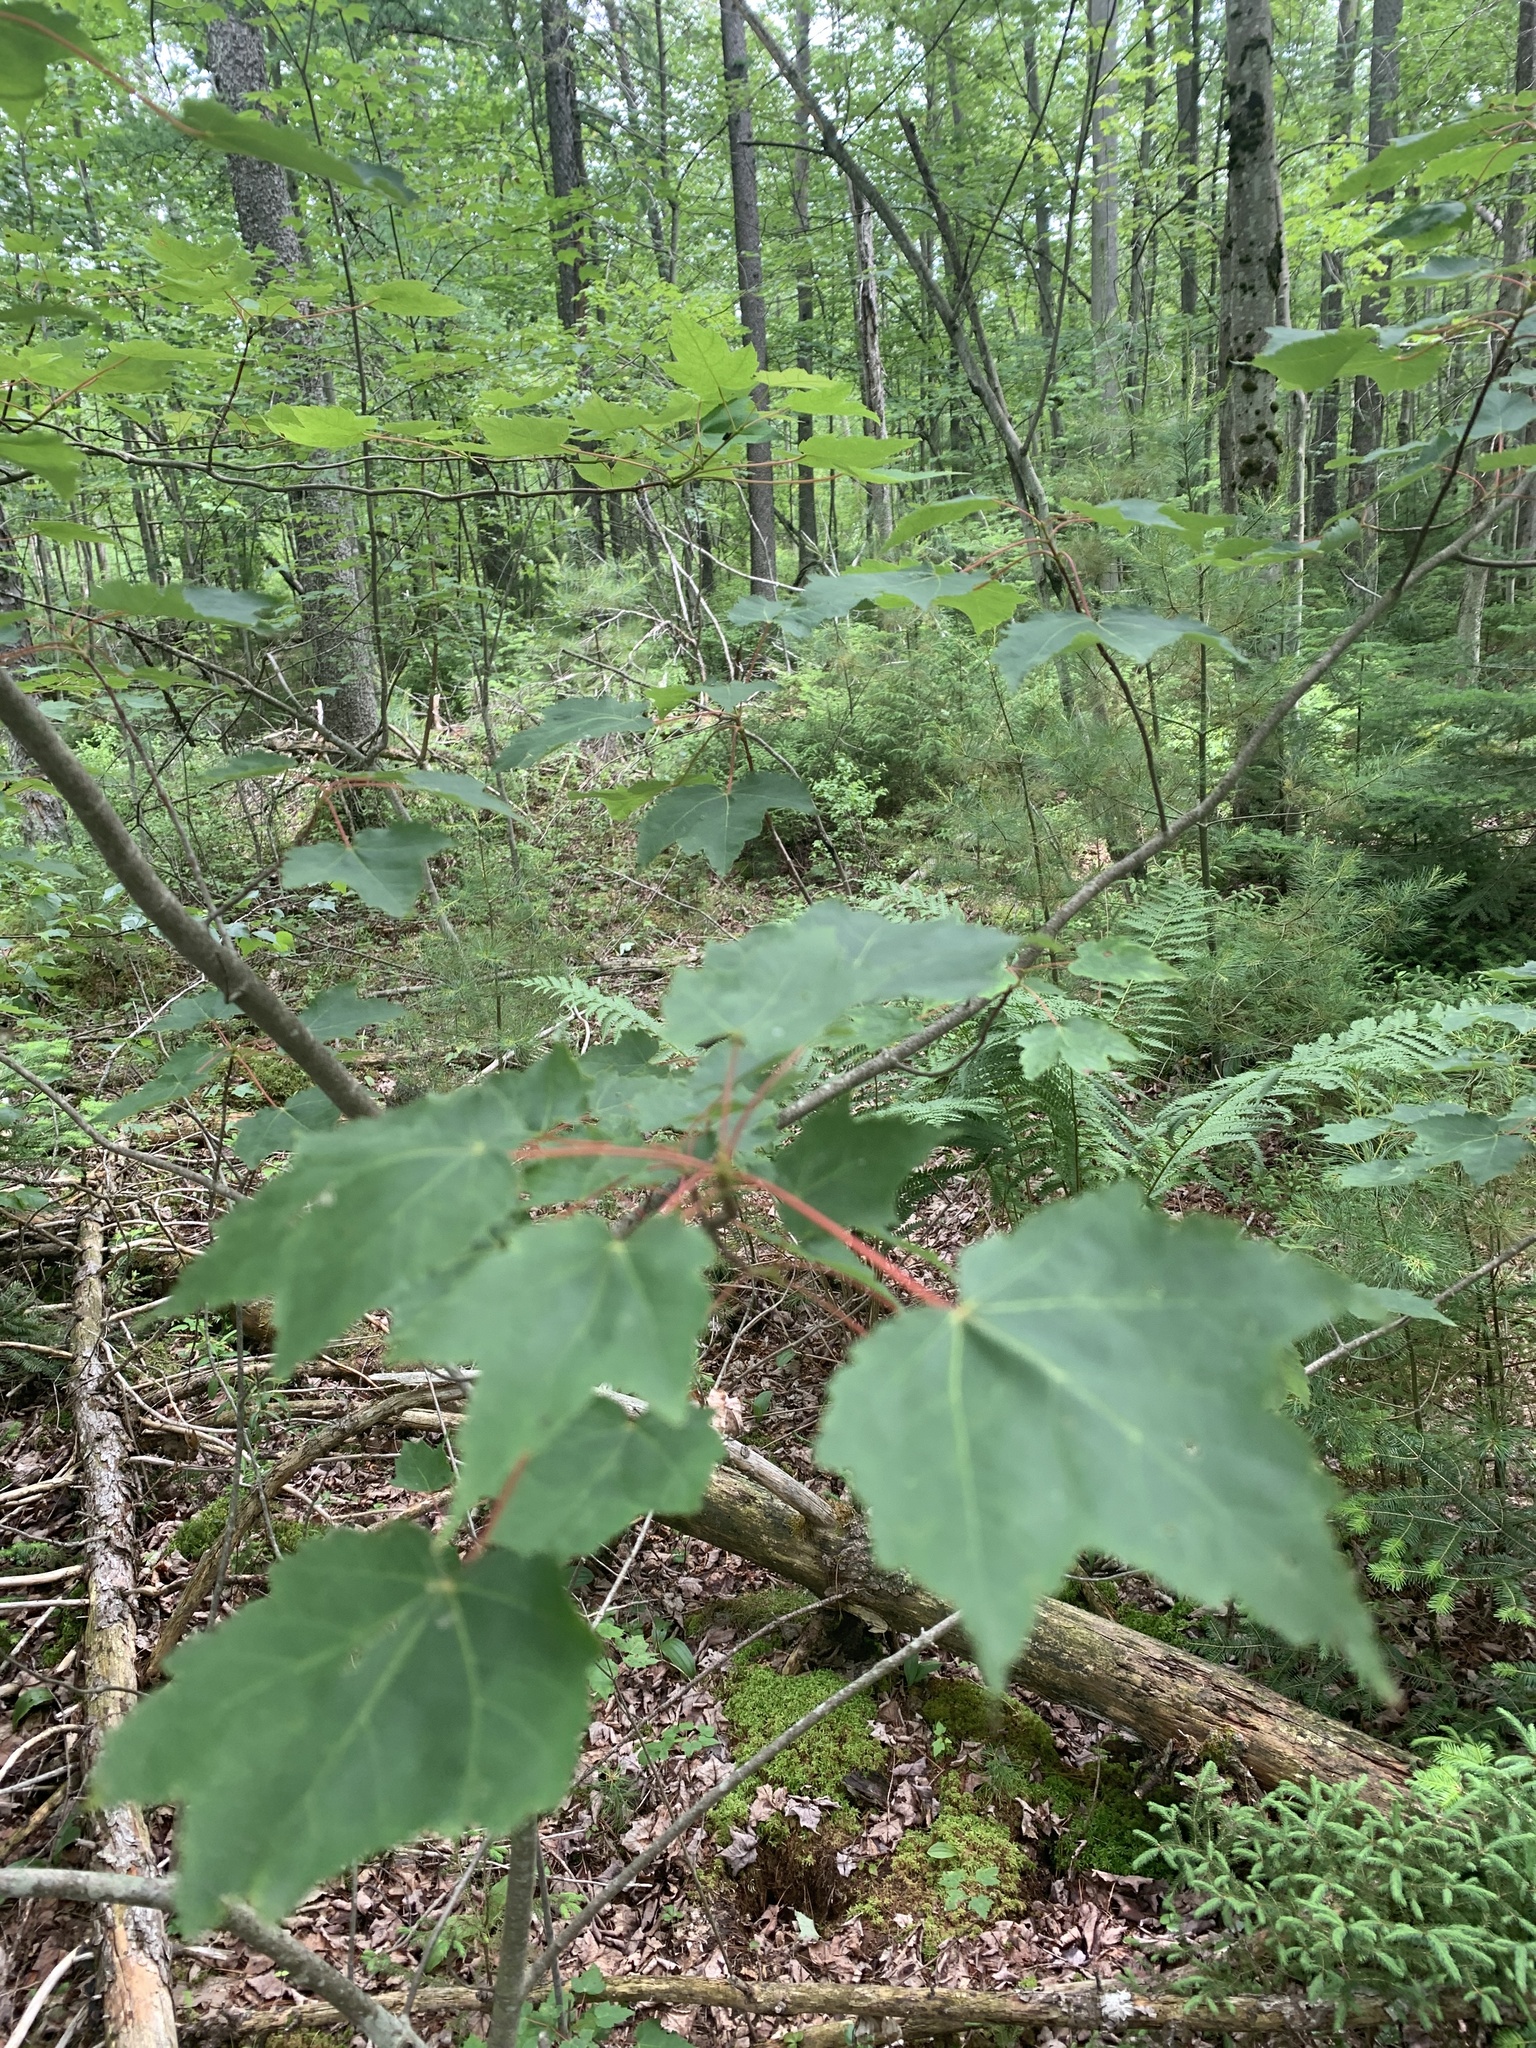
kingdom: Plantae
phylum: Tracheophyta
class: Magnoliopsida
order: Sapindales
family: Sapindaceae
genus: Acer
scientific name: Acer rubrum
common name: Red maple
